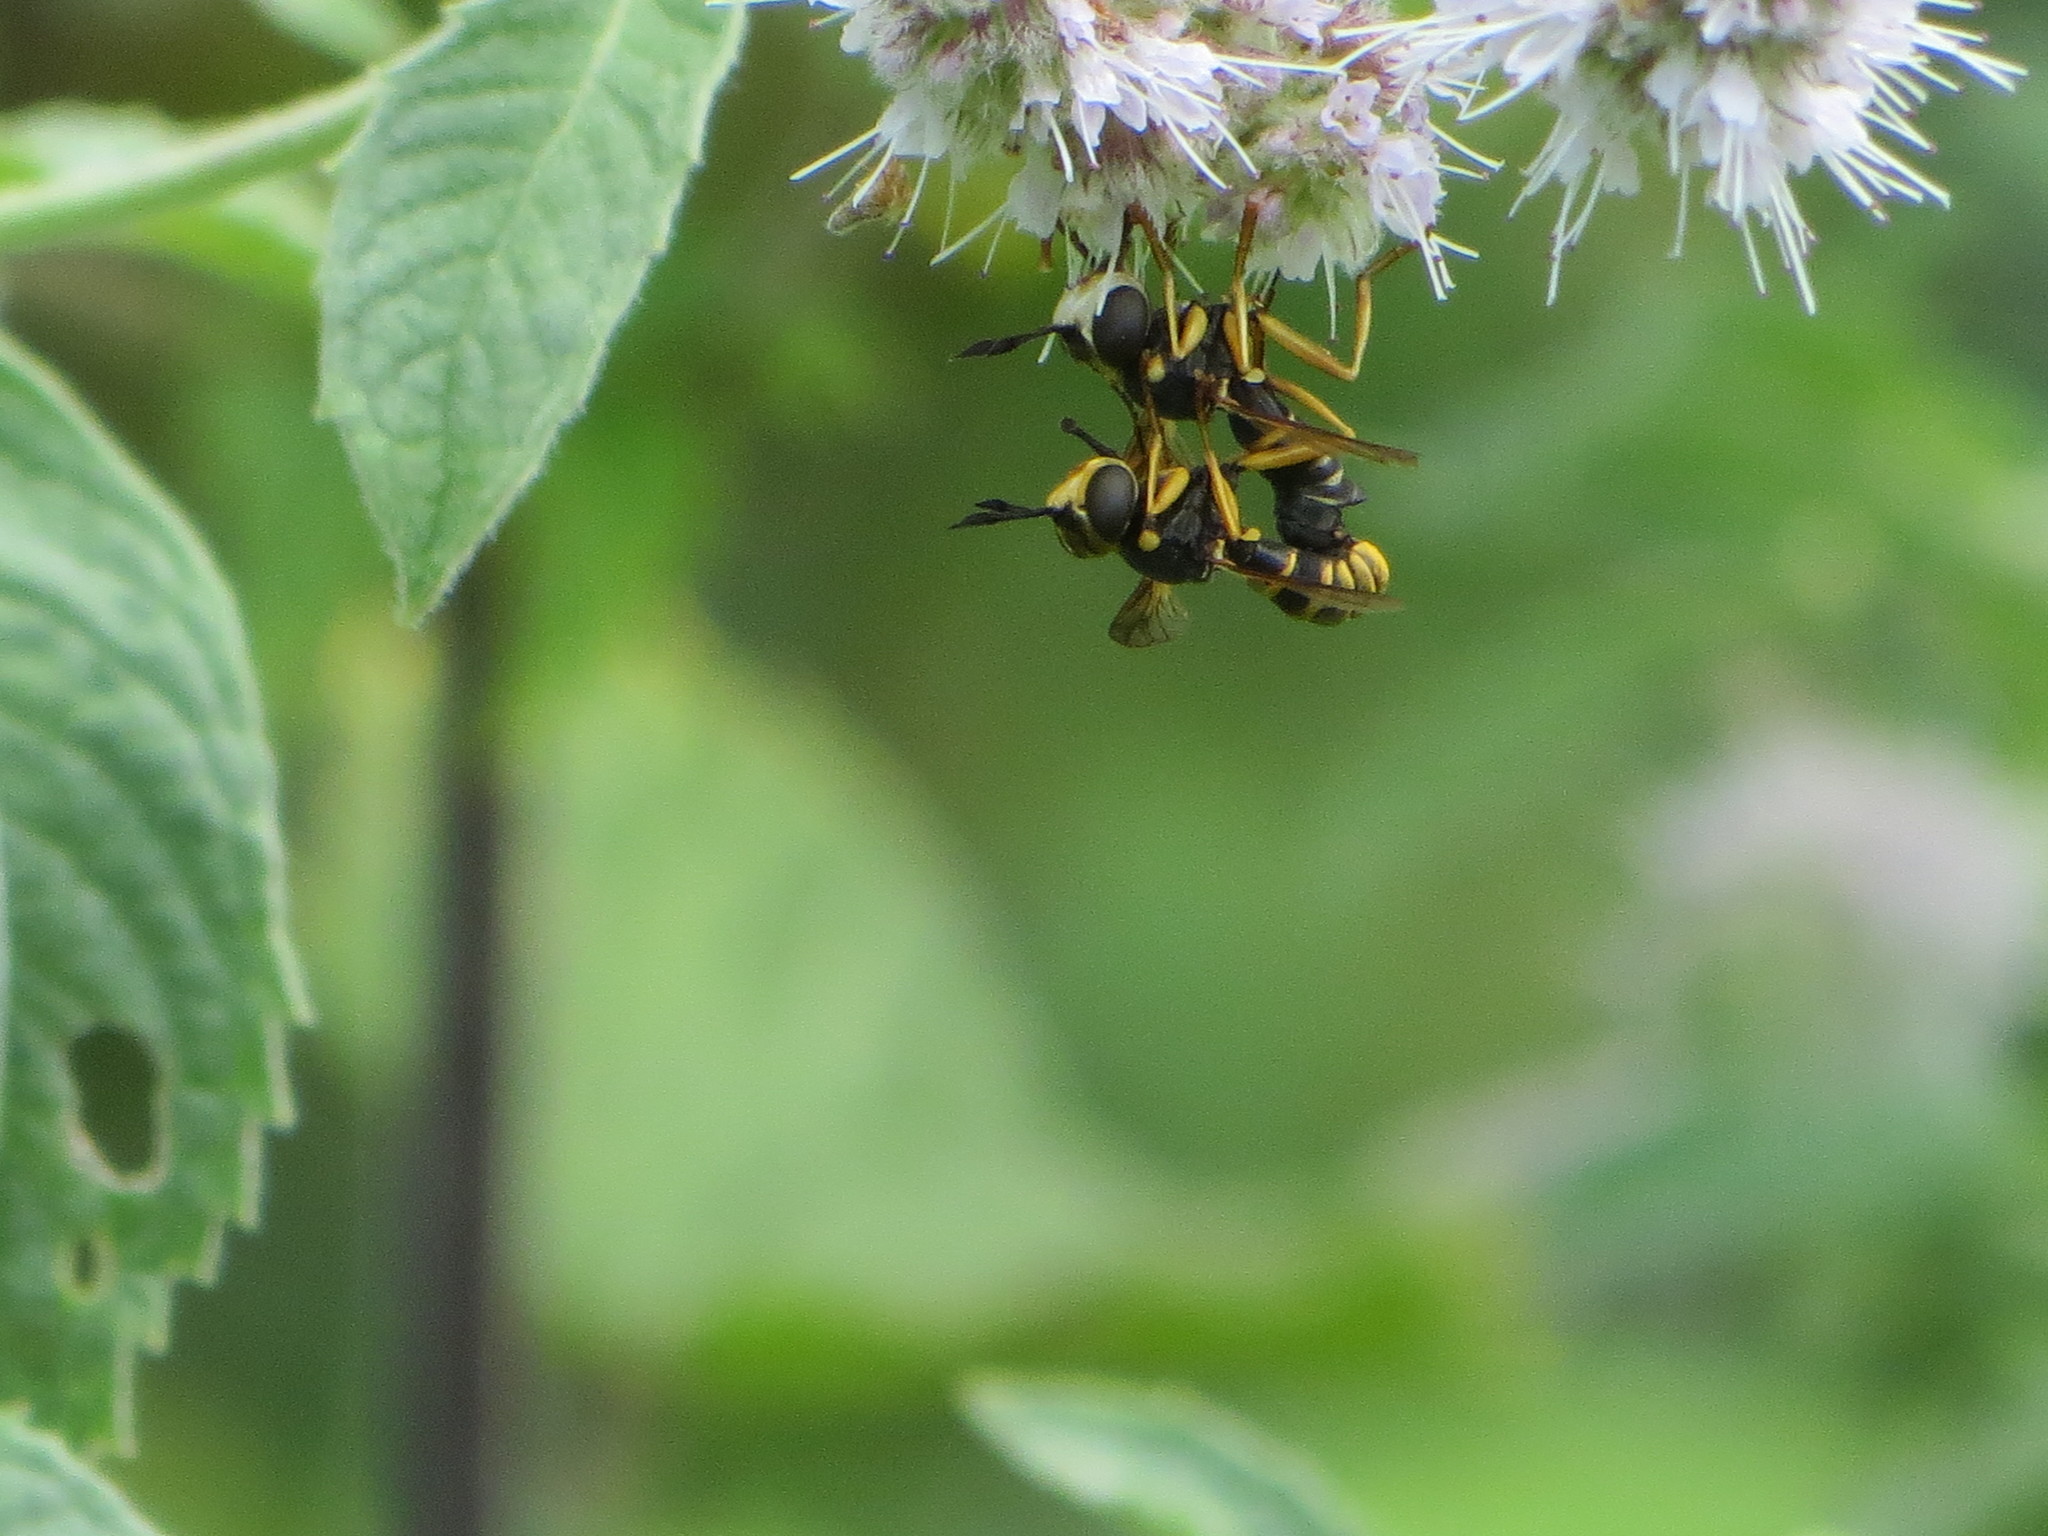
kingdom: Animalia
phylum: Arthropoda
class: Insecta
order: Diptera
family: Conopidae
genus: Conops
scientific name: Conops flavipes
